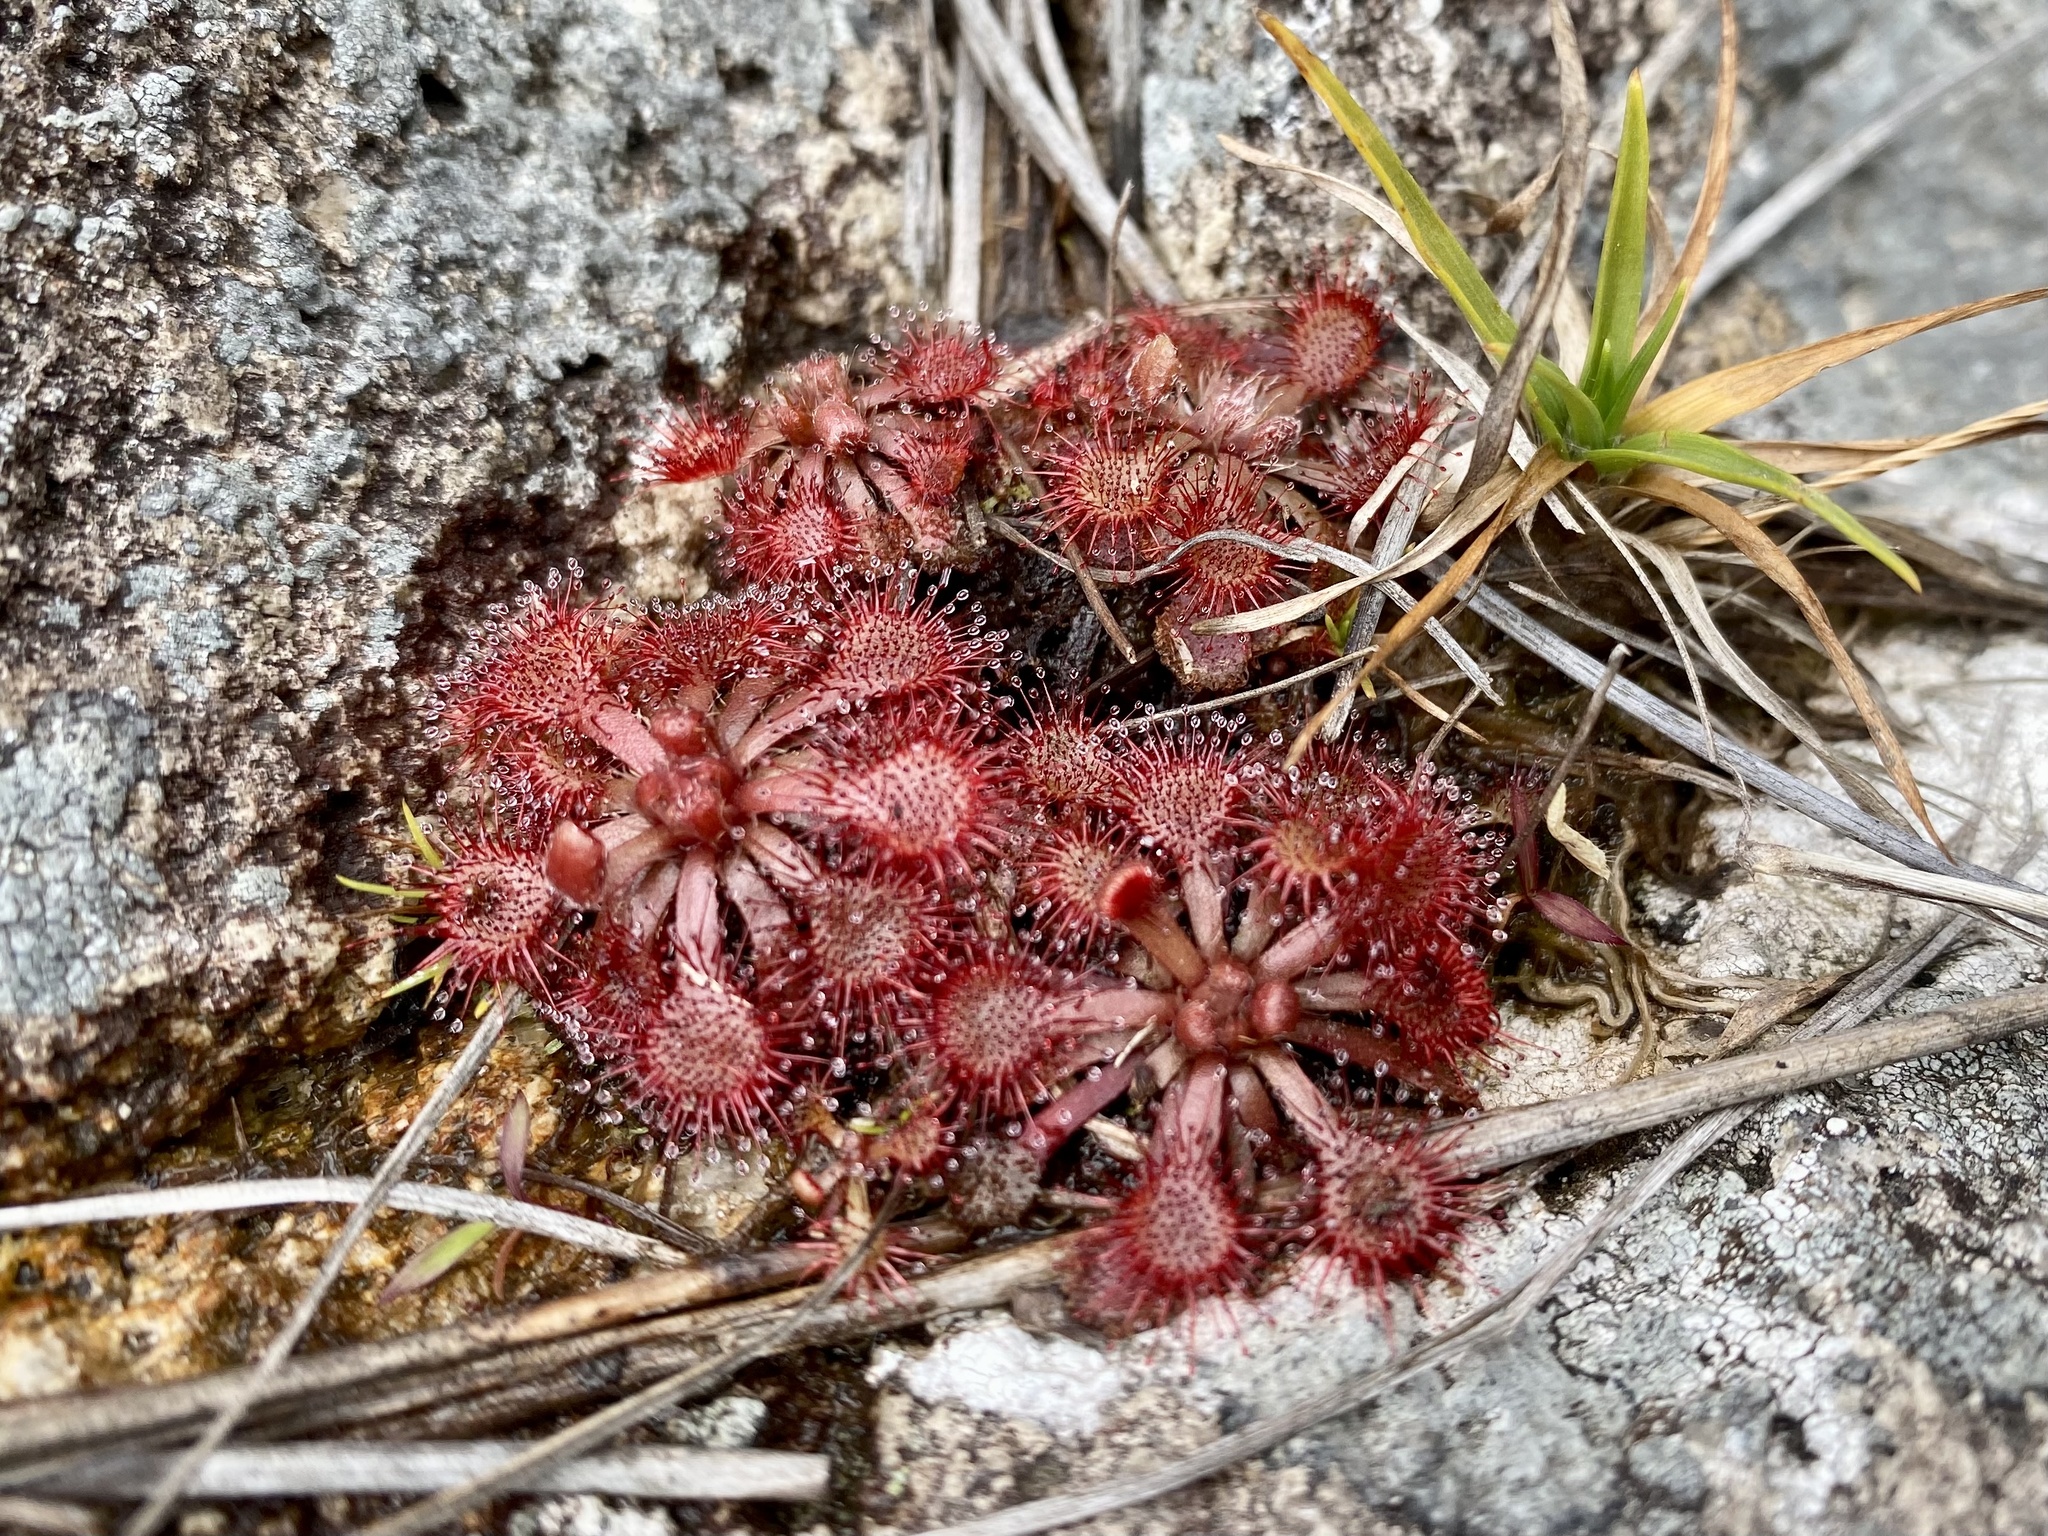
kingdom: Plantae
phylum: Tracheophyta
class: Magnoliopsida
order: Caryophyllales
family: Droseraceae
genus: Drosera
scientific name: Drosera spatulata
